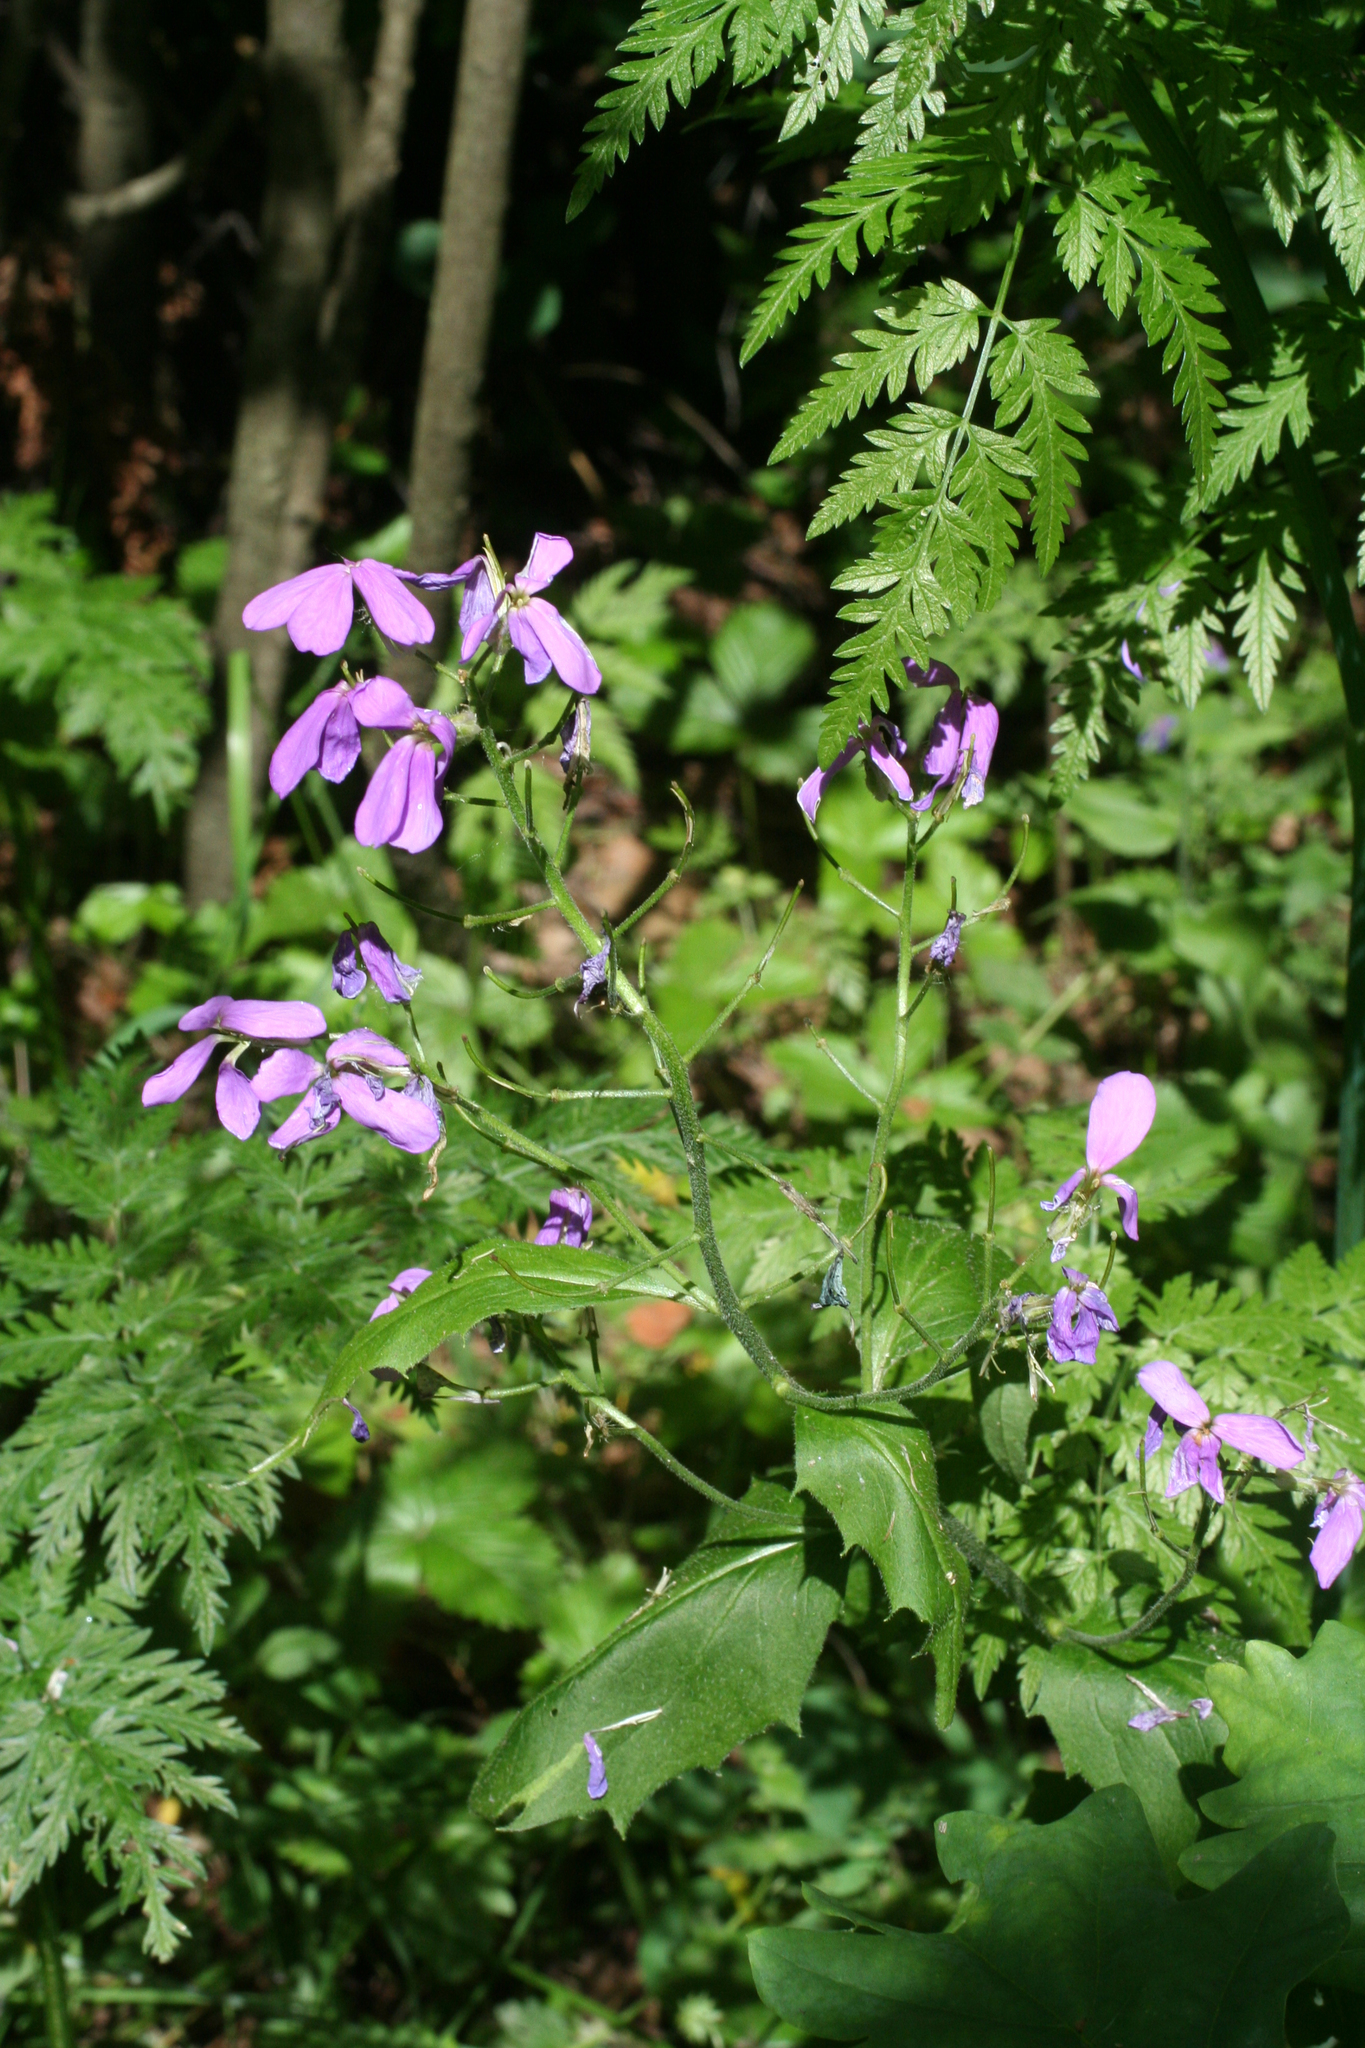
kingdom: Plantae
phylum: Tracheophyta
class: Magnoliopsida
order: Brassicales
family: Brassicaceae
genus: Hesperis
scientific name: Hesperis matronalis
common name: Dame's-violet
